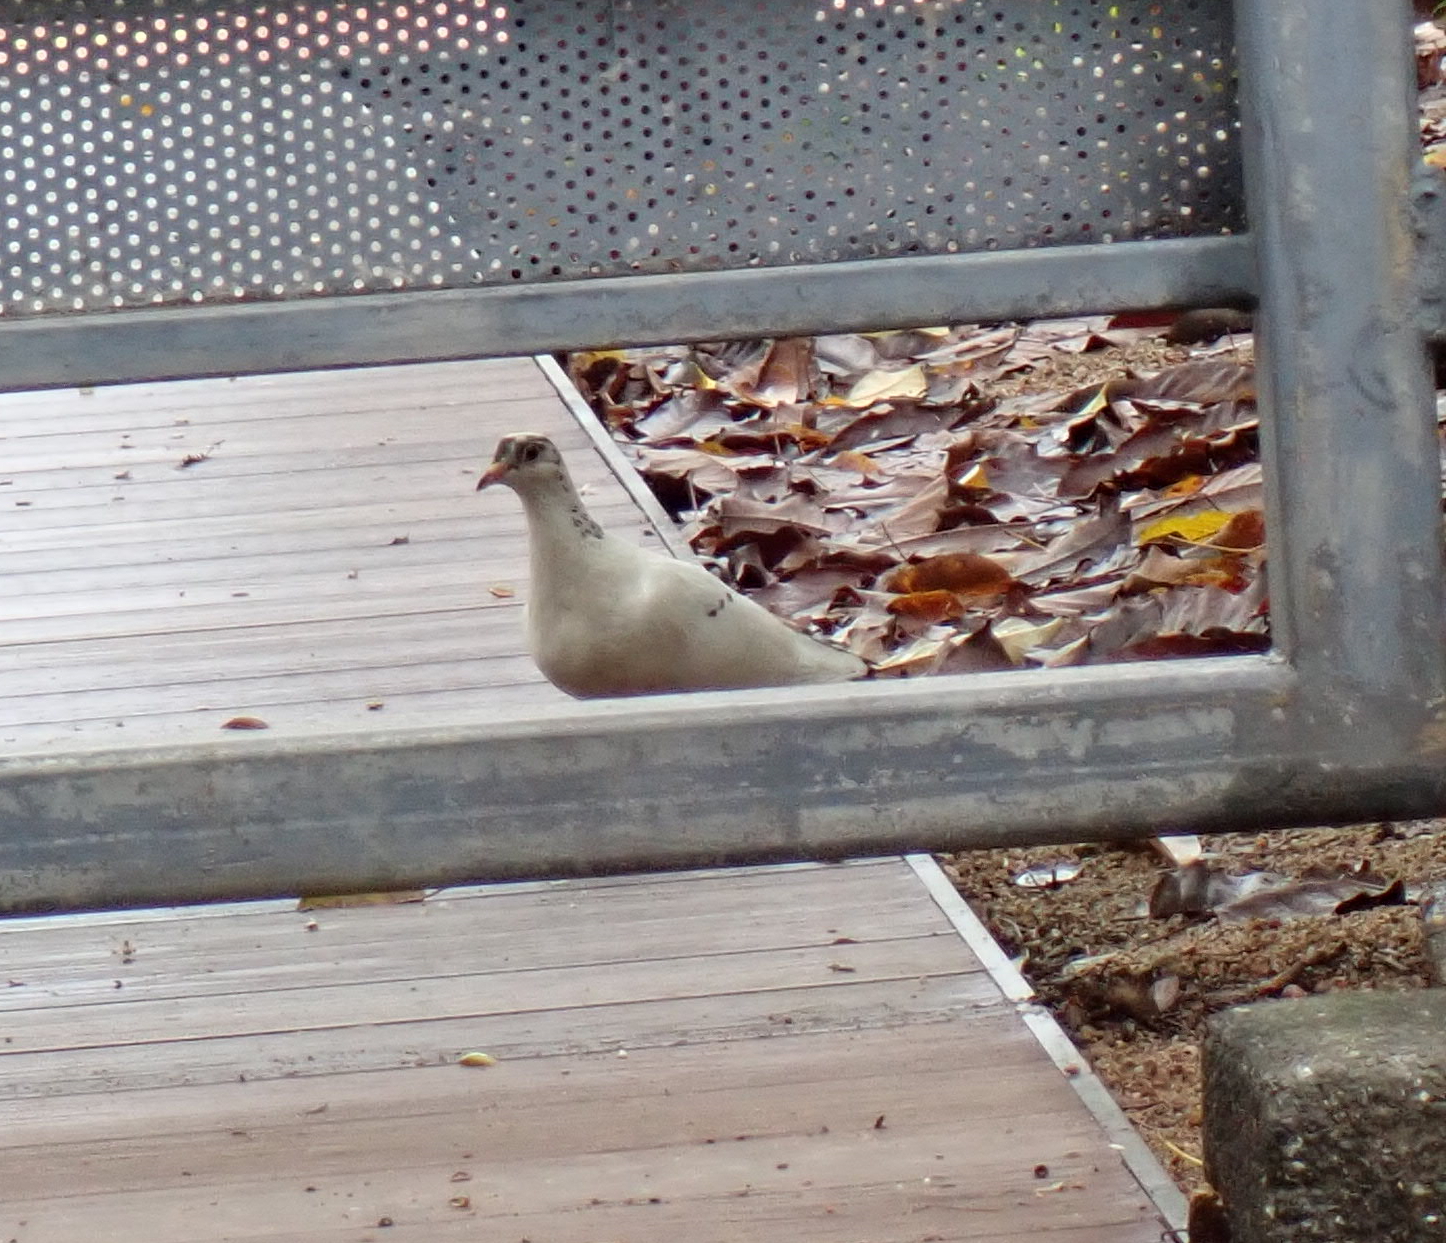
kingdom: Animalia
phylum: Chordata
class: Aves
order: Columbiformes
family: Columbidae
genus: Columba
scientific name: Columba livia
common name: Rock pigeon
